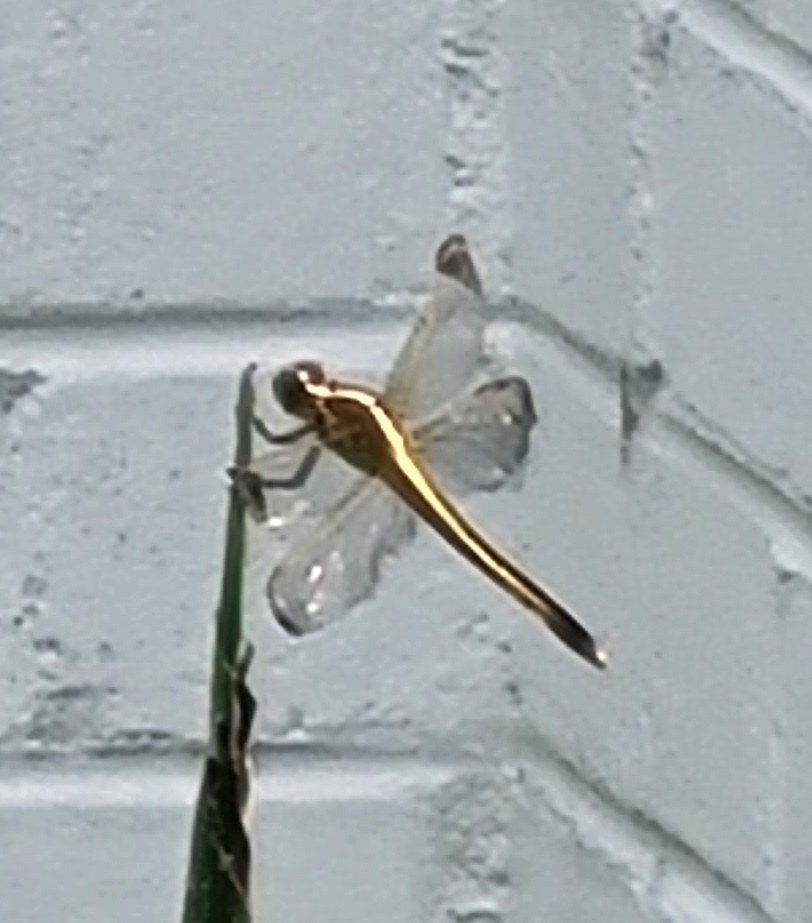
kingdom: Animalia
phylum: Arthropoda
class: Insecta
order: Odonata
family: Libellulidae
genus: Libellula
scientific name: Libellula needhami
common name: Needham's skimmer
